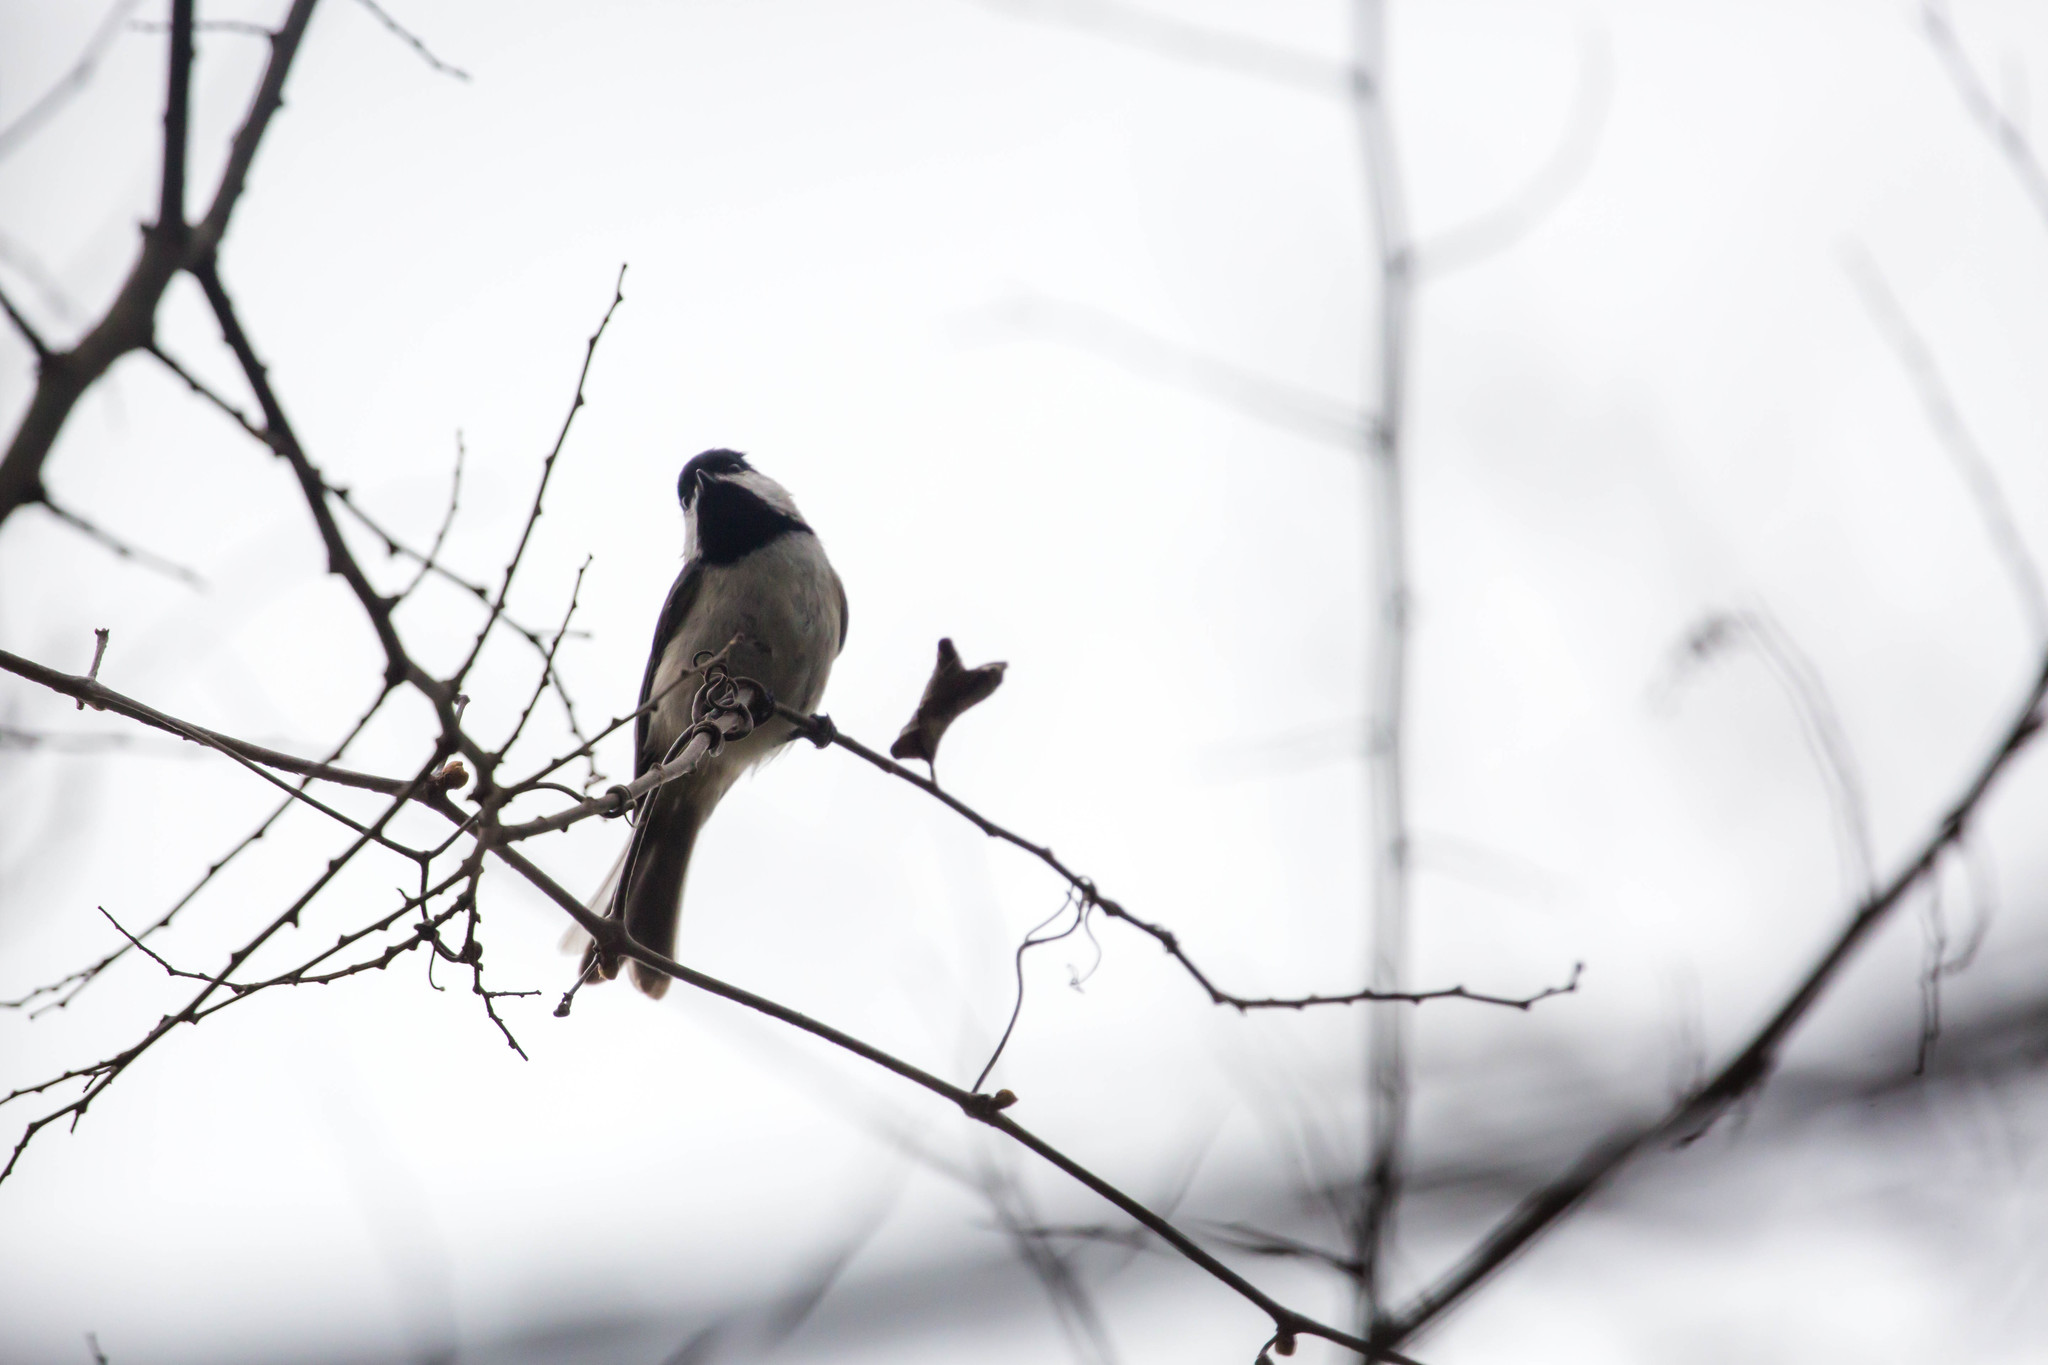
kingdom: Animalia
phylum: Chordata
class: Aves
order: Passeriformes
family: Paridae
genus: Poecile
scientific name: Poecile carolinensis
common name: Carolina chickadee
